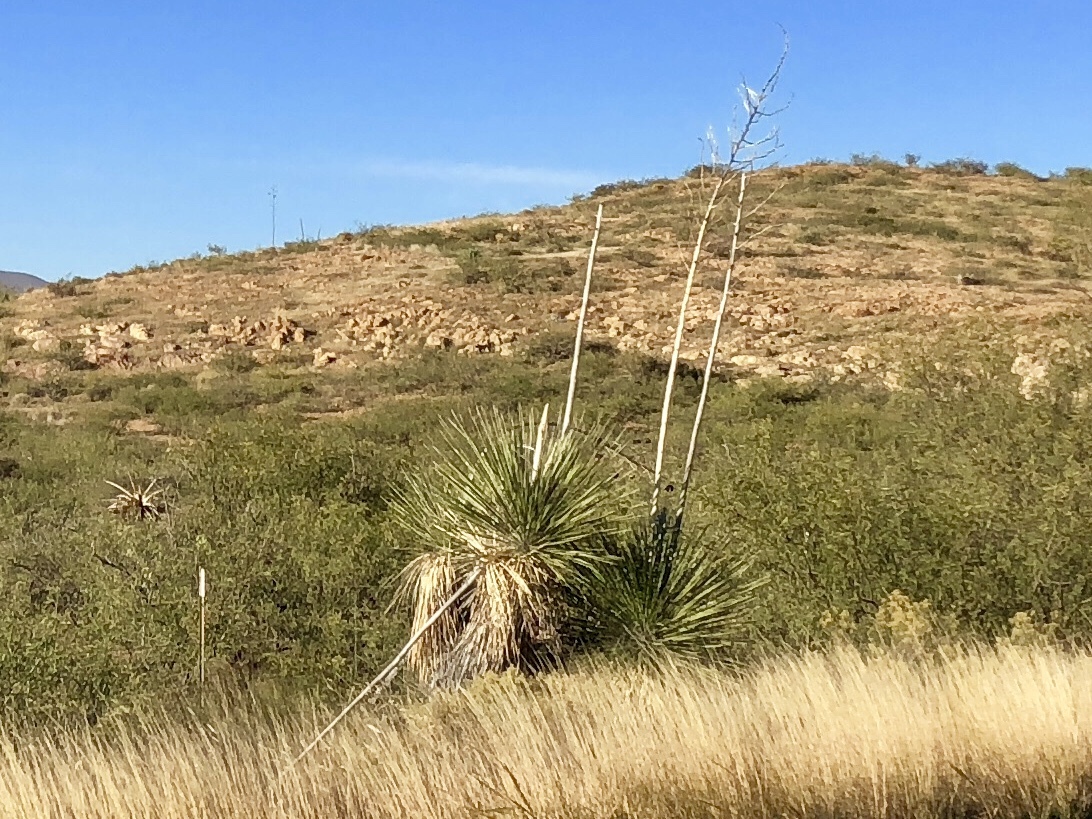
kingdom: Plantae
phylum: Tracheophyta
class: Liliopsida
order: Asparagales
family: Asparagaceae
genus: Yucca
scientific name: Yucca elata
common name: Palmella
